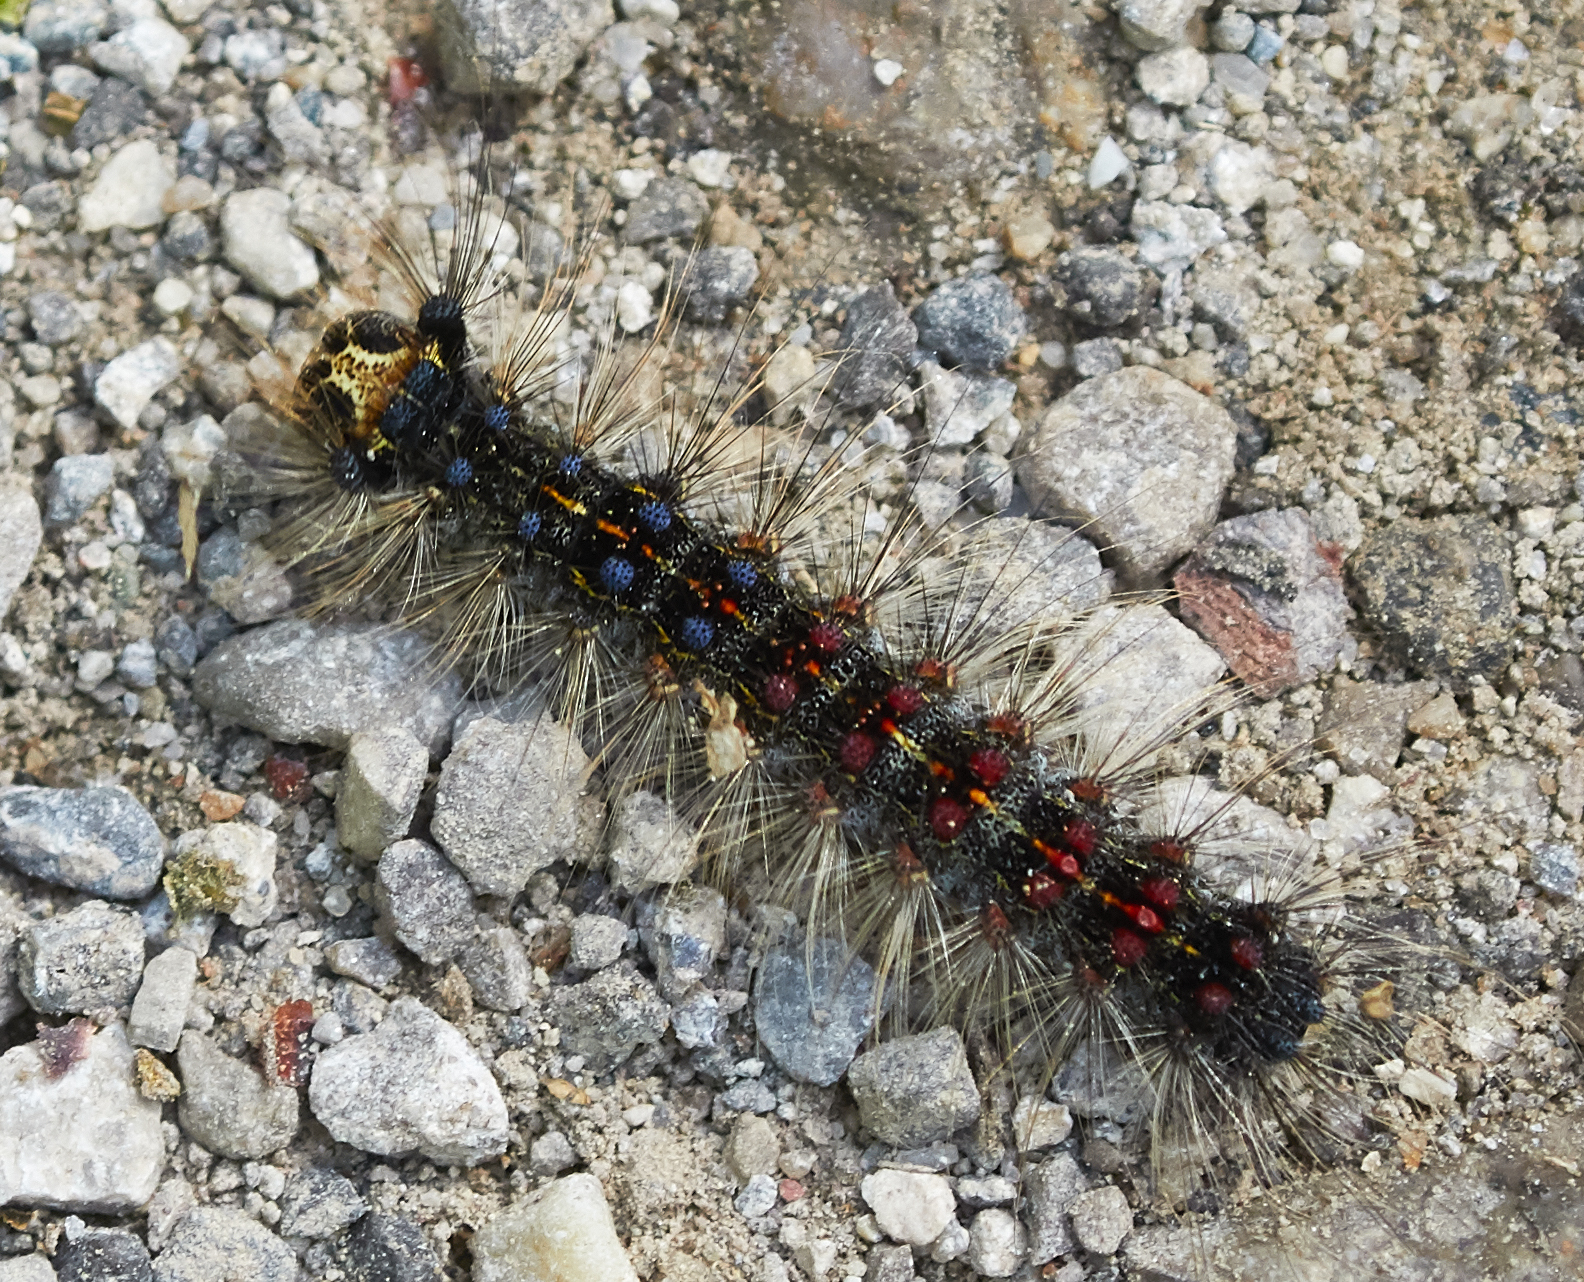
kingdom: Animalia
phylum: Arthropoda
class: Insecta
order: Lepidoptera
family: Erebidae
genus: Lymantria
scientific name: Lymantria dispar
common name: Gypsy moth
